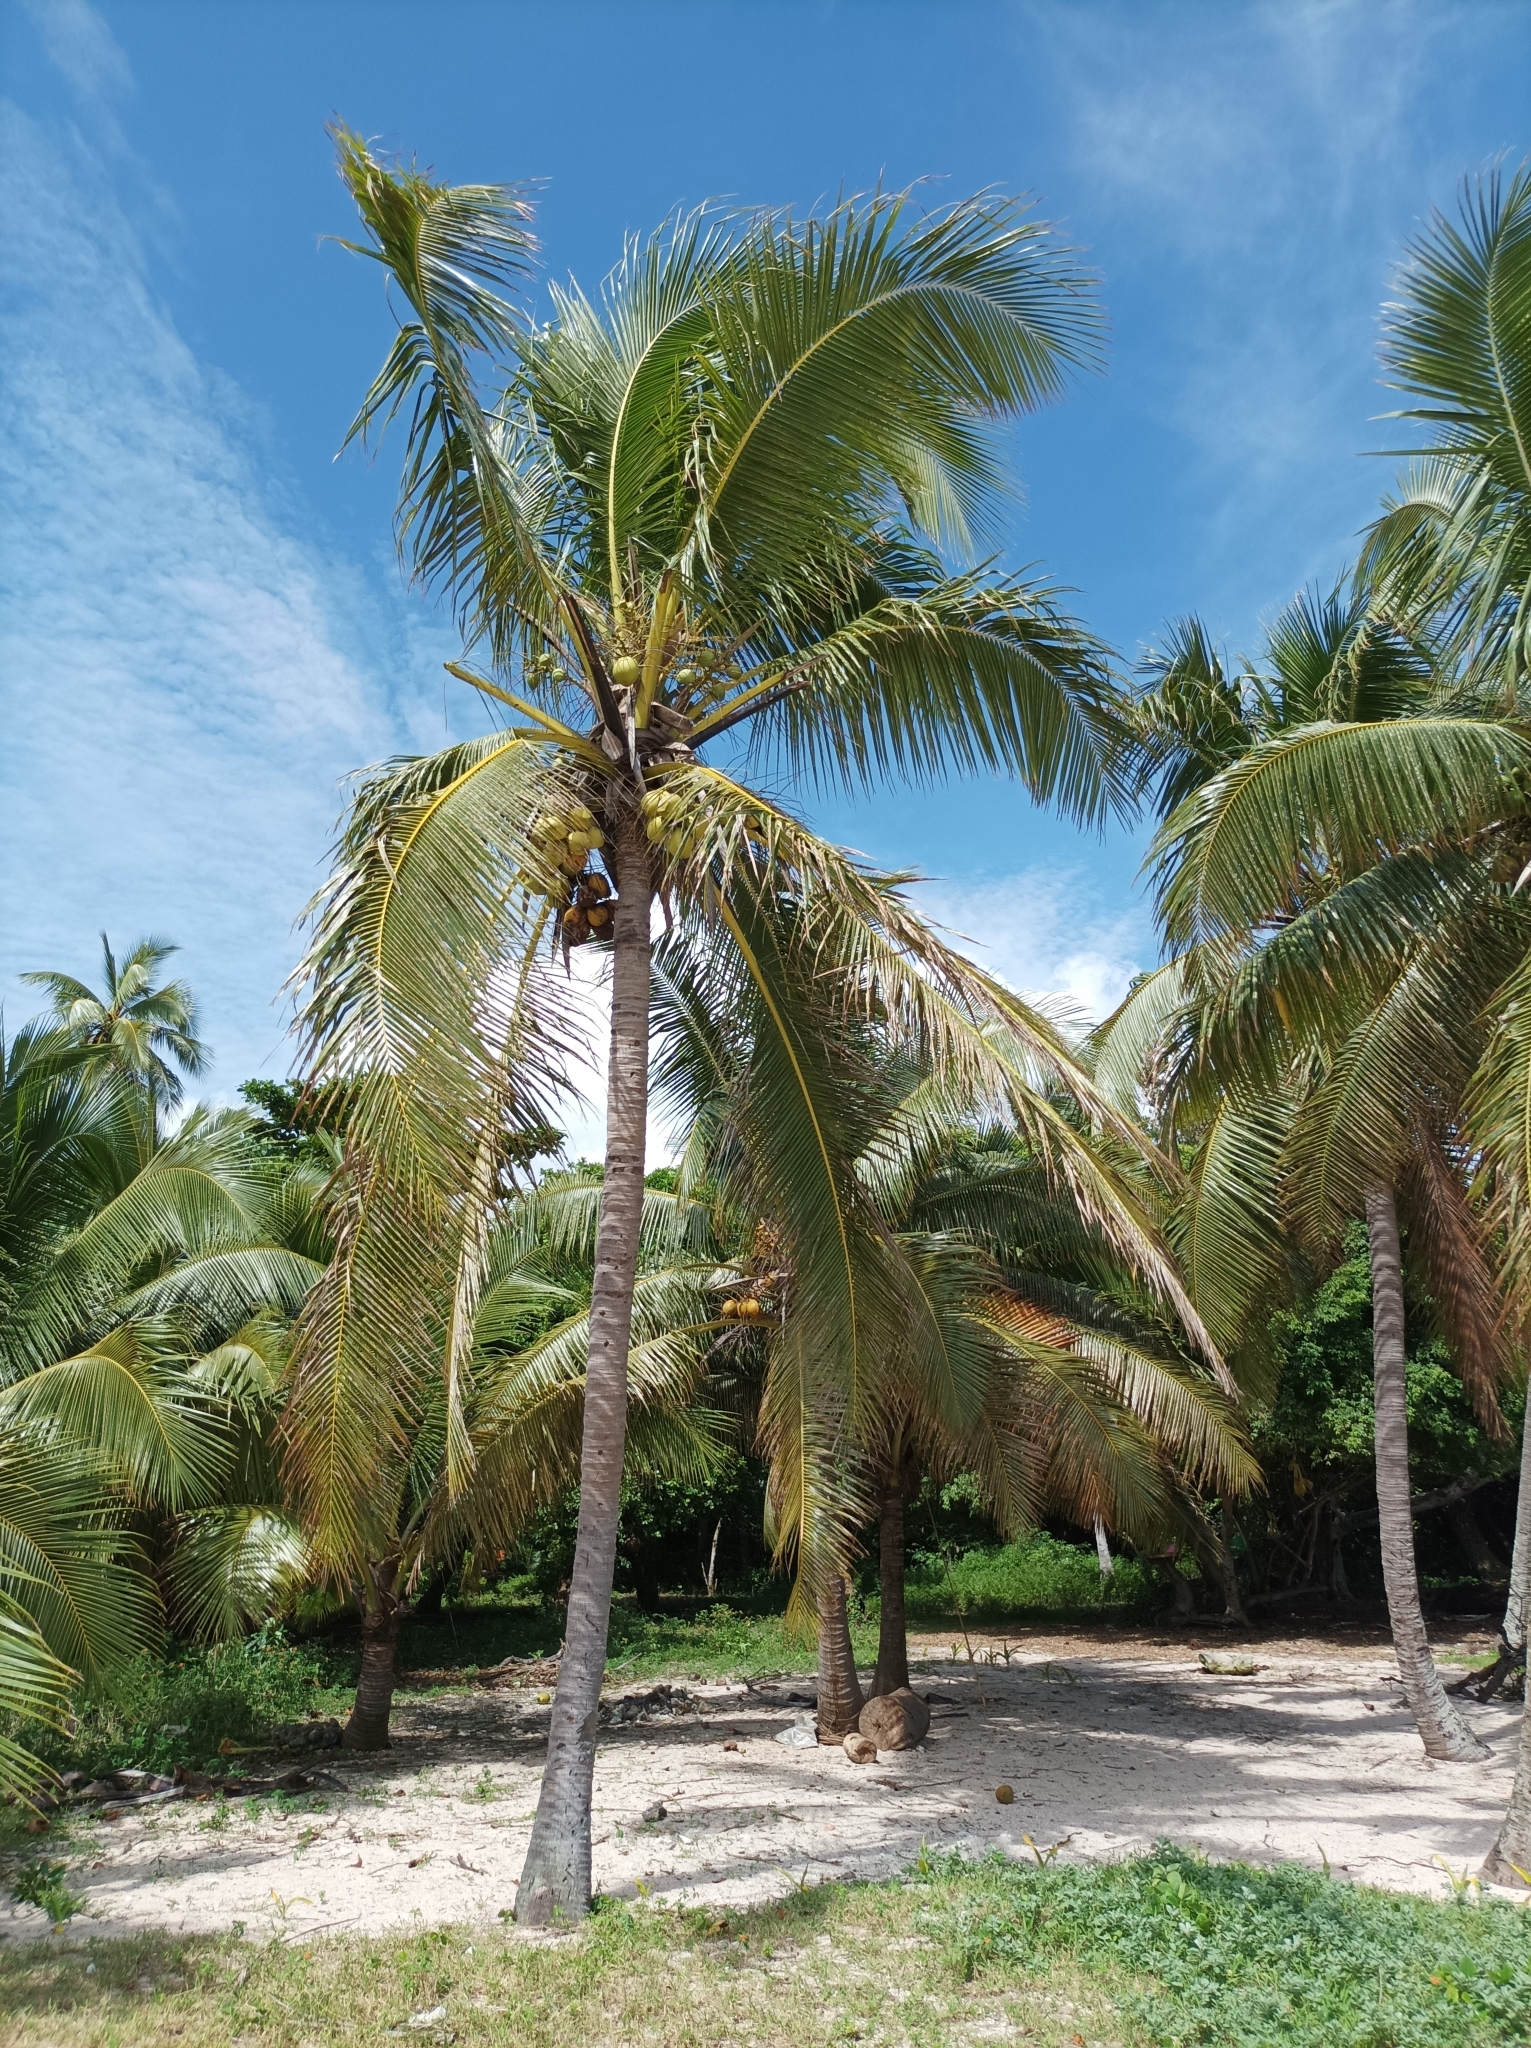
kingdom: Plantae
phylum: Tracheophyta
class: Liliopsida
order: Arecales
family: Arecaceae
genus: Cocos
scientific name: Cocos nucifera
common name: Coconut palm
